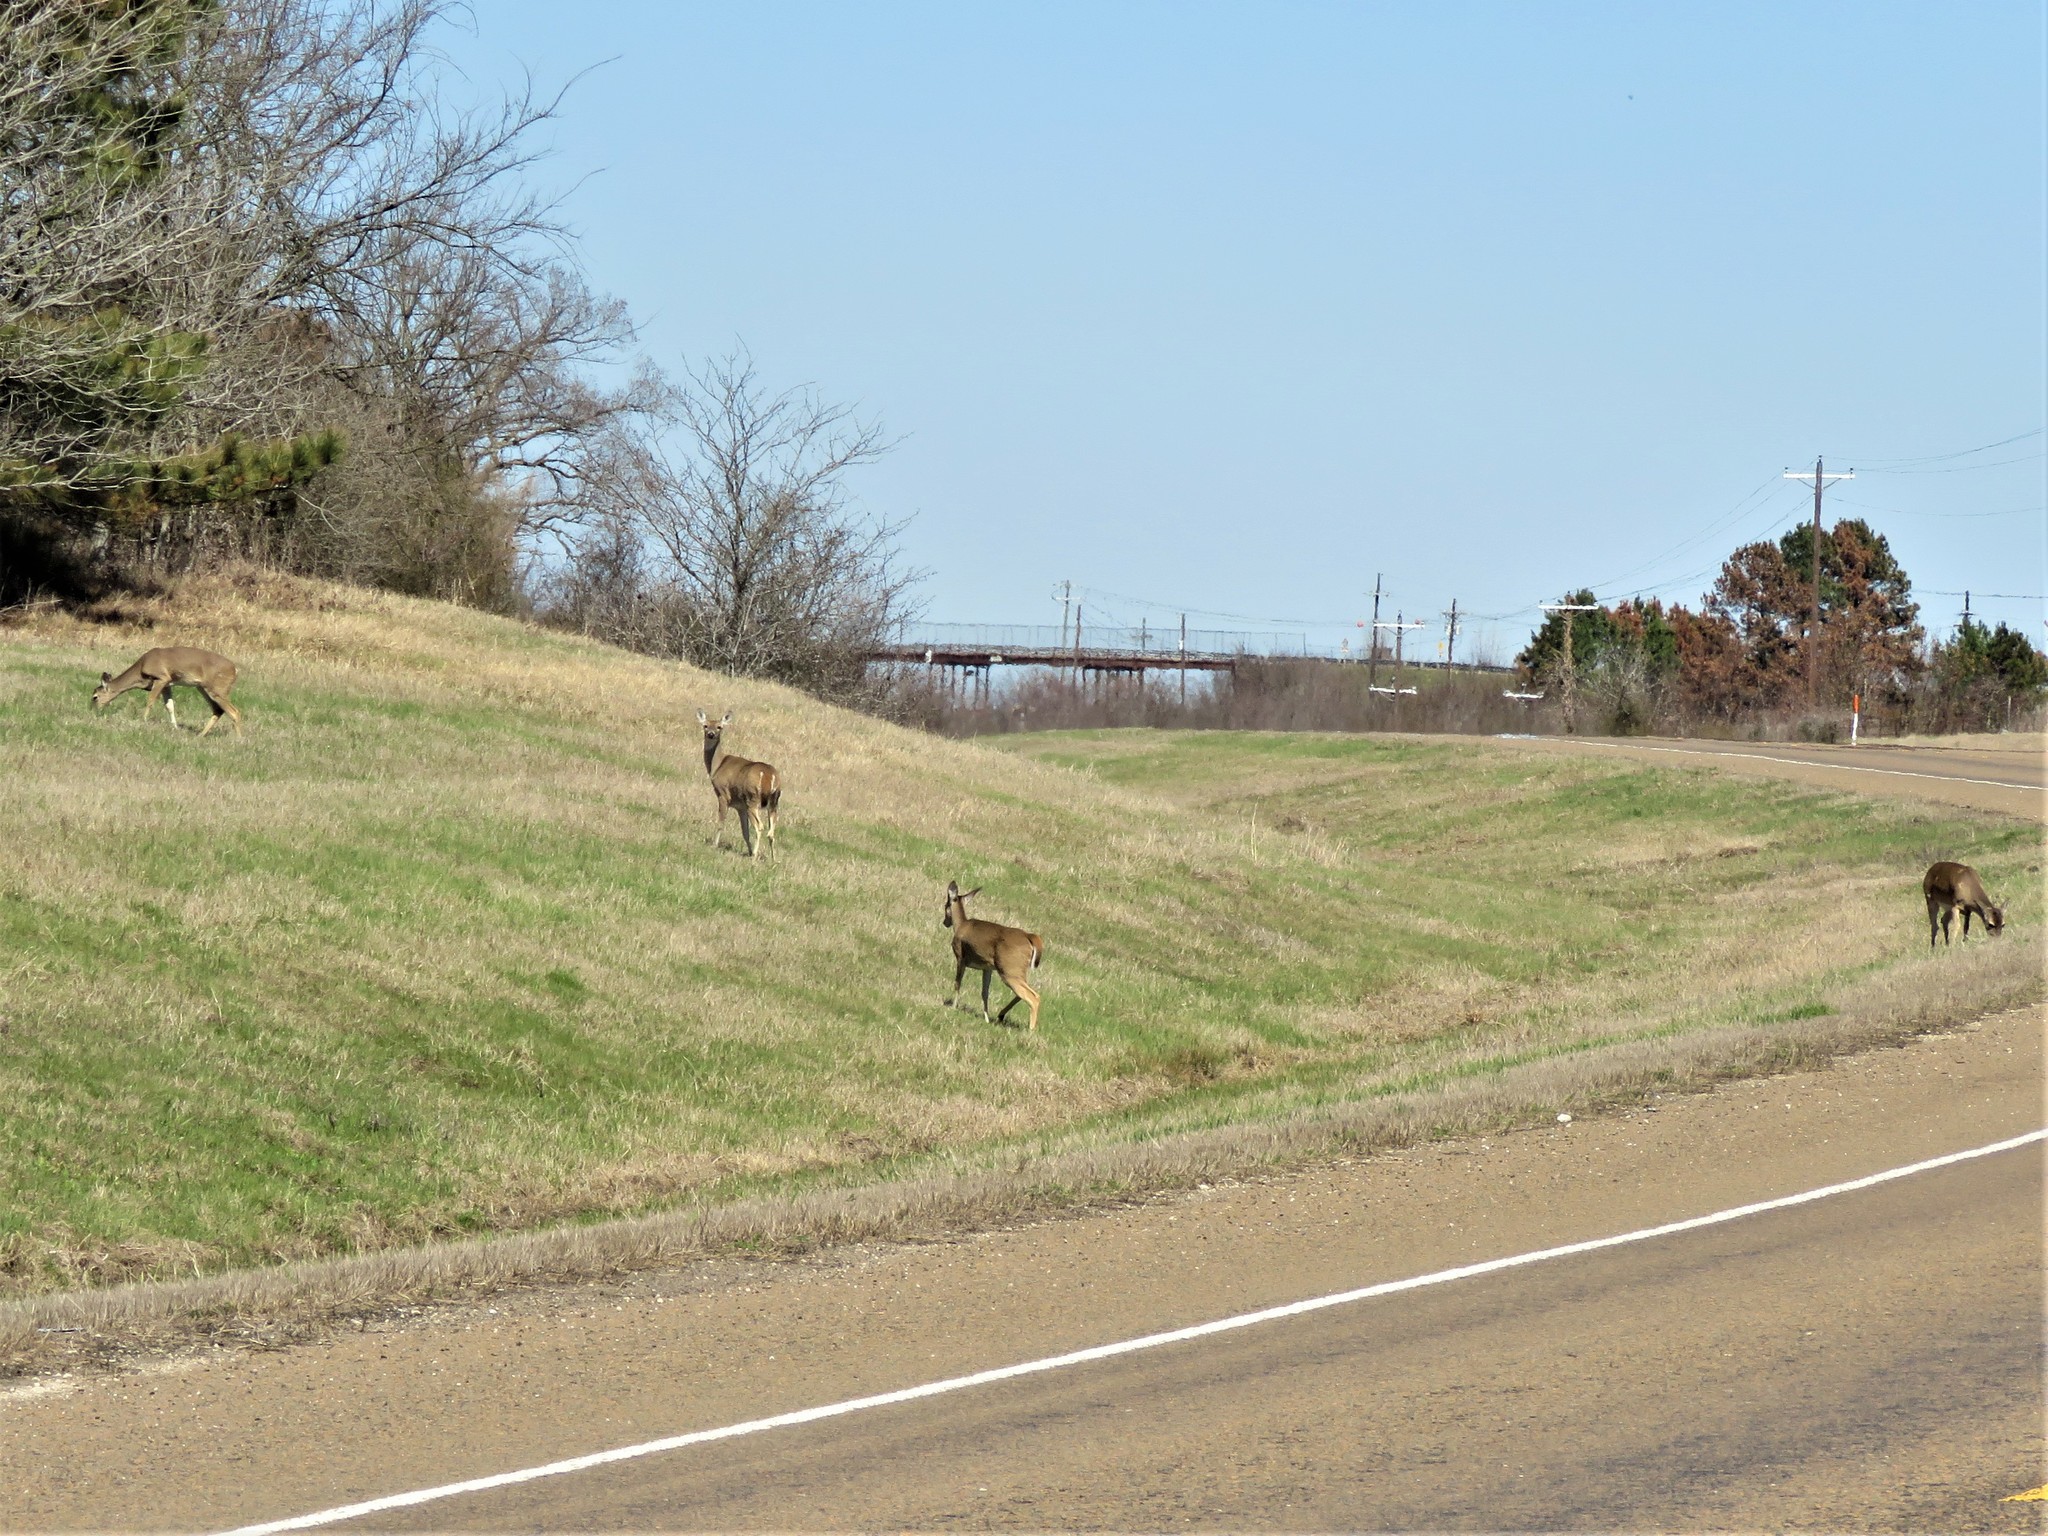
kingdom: Animalia
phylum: Chordata
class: Mammalia
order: Artiodactyla
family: Cervidae
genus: Odocoileus
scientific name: Odocoileus virginianus
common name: White-tailed deer
